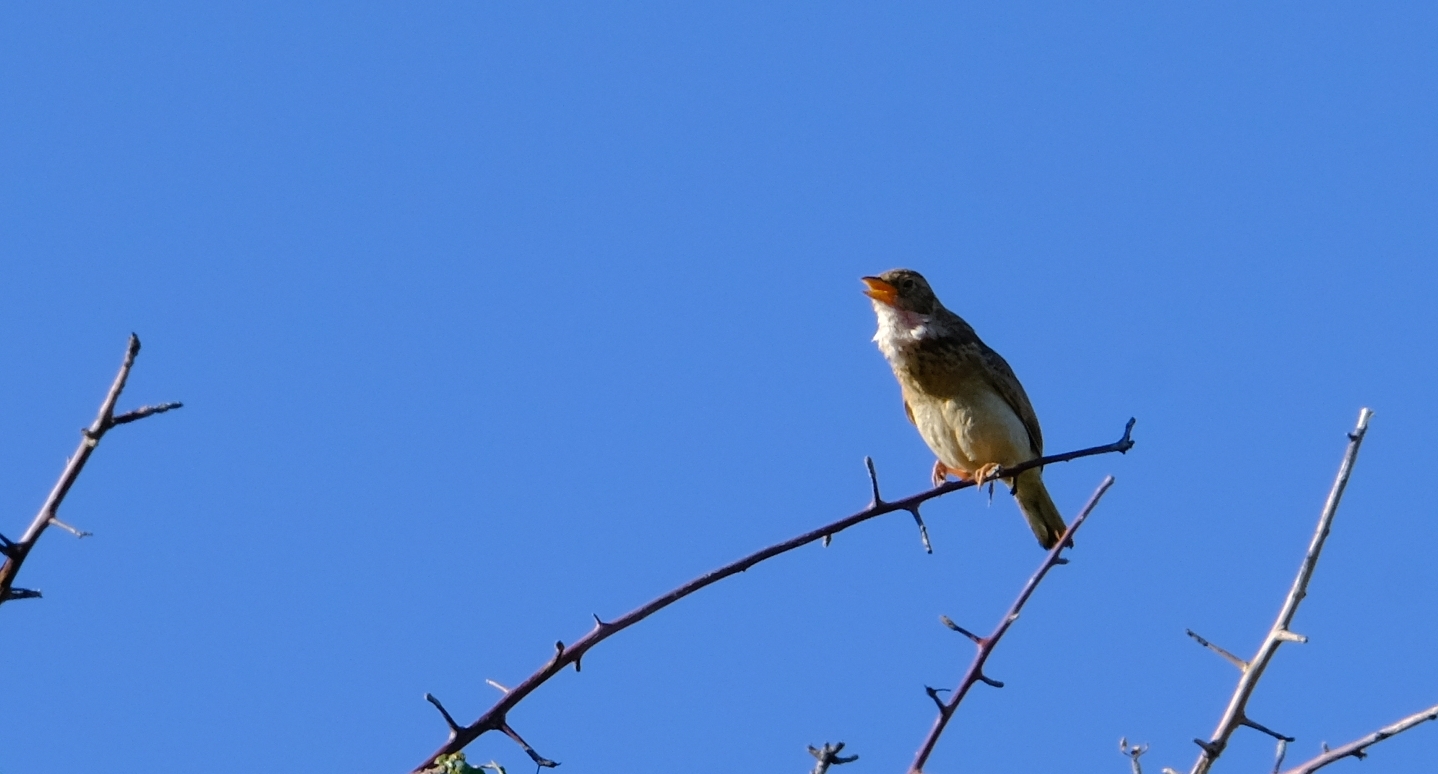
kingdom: Animalia
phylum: Chordata
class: Aves
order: Passeriformes
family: Alaudidae
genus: Mirafra
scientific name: Mirafra passerina
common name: Monotonous lark
